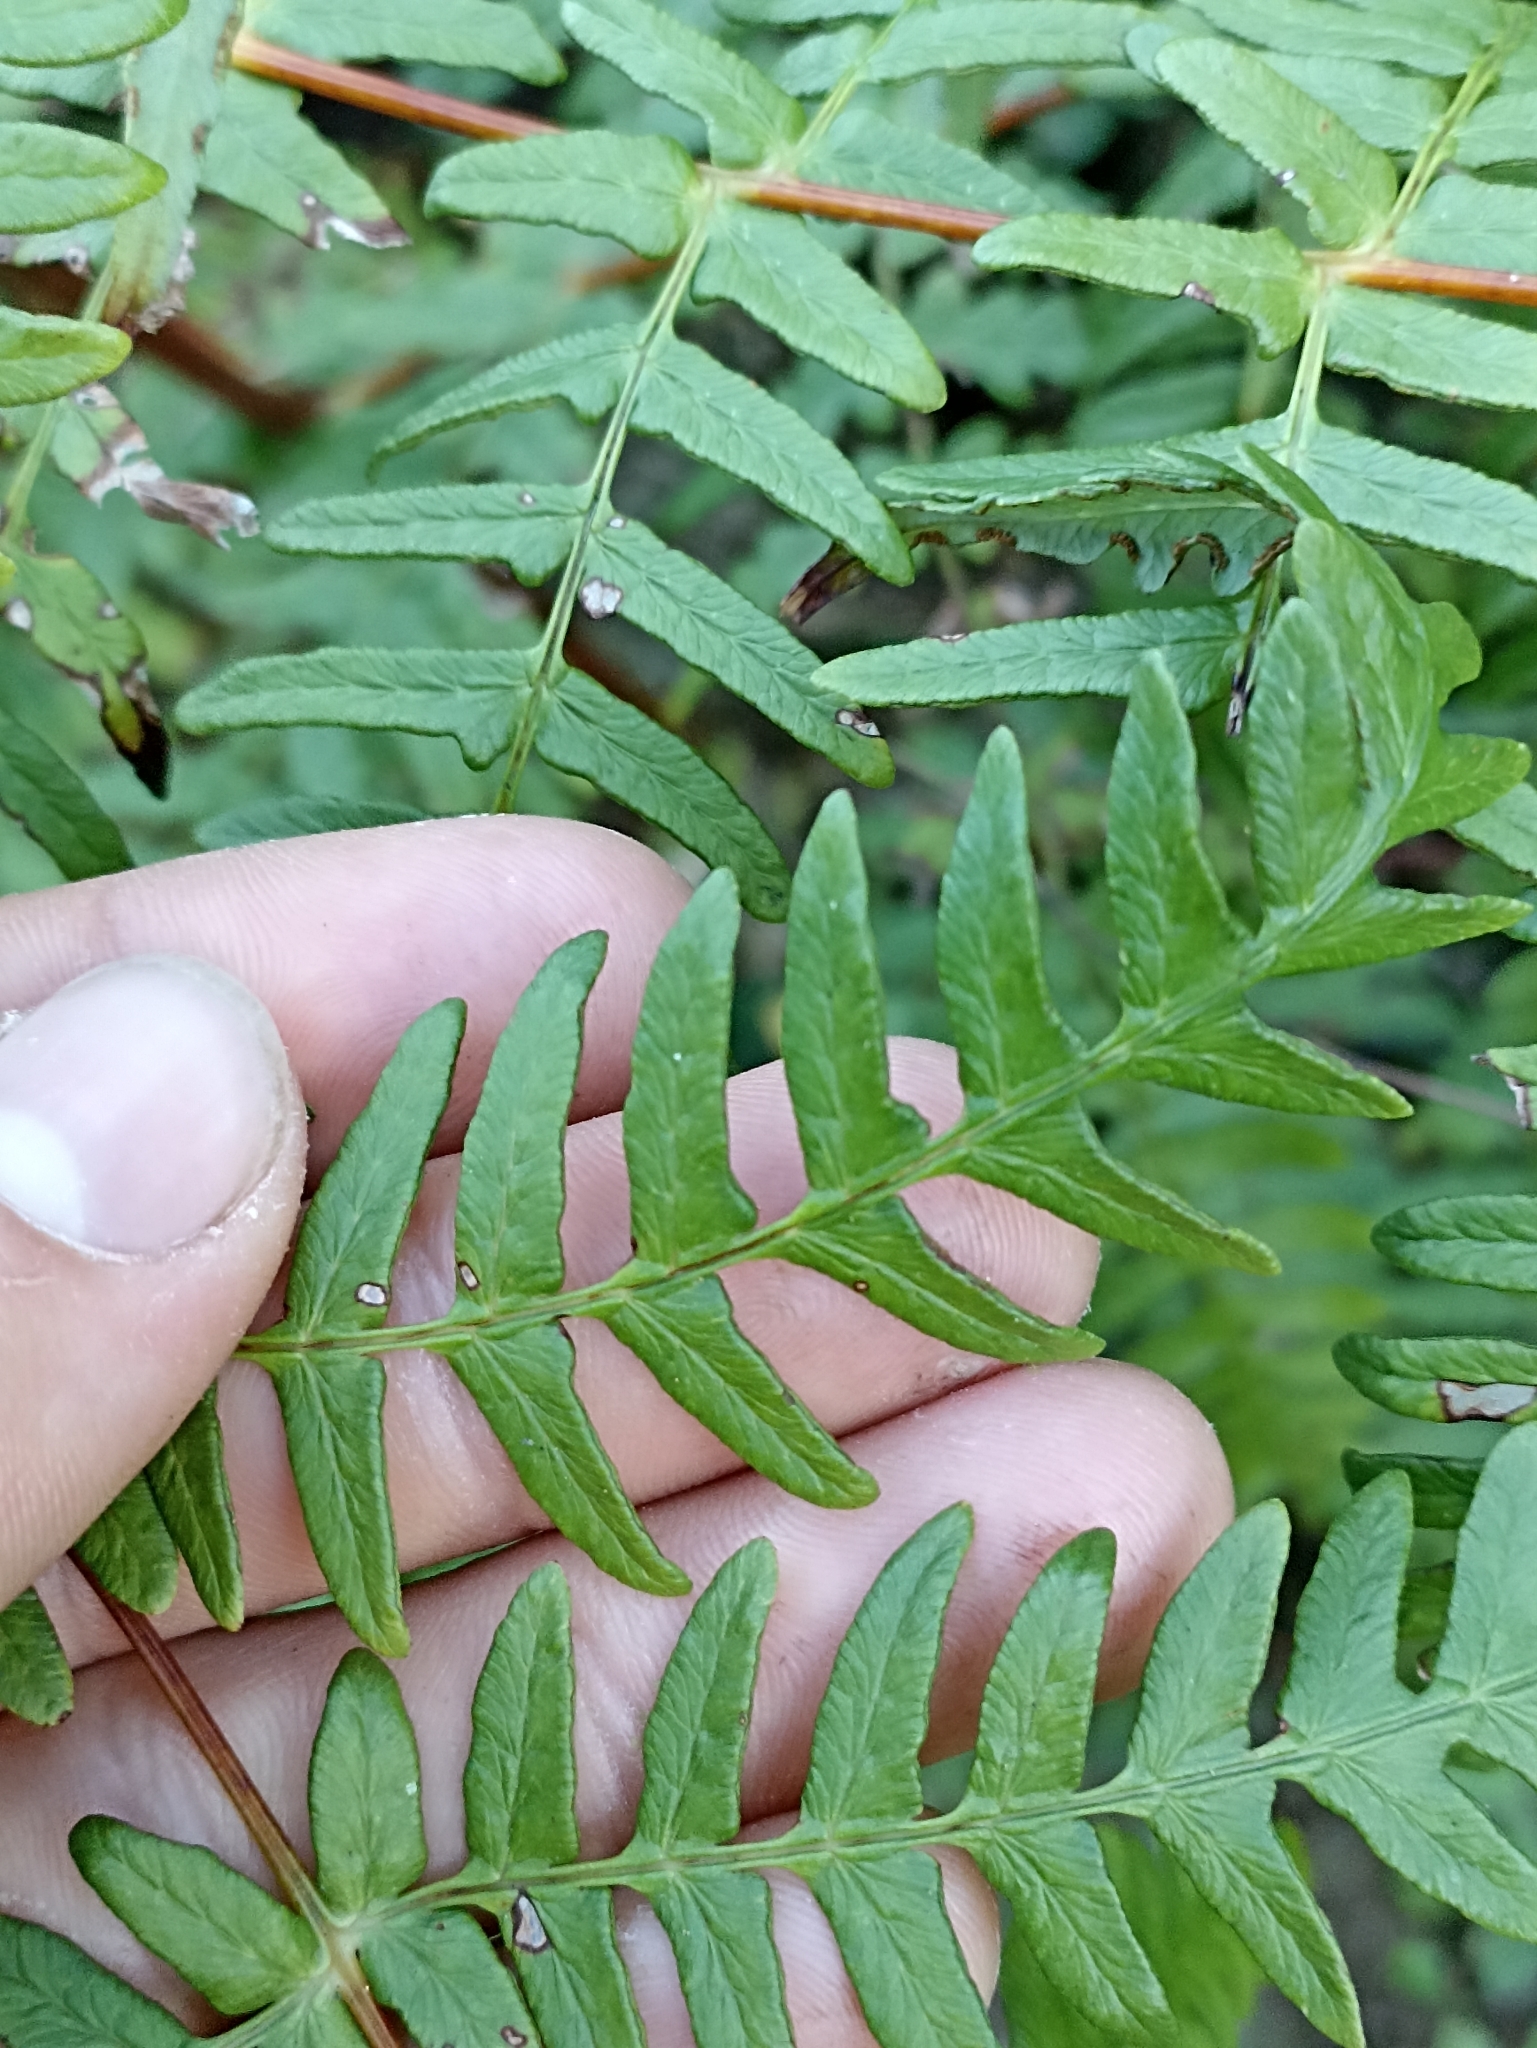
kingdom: Plantae
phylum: Tracheophyta
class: Polypodiopsida
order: Polypodiales
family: Dennstaedtiaceae
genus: Histiopteris
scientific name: Histiopteris incisa
